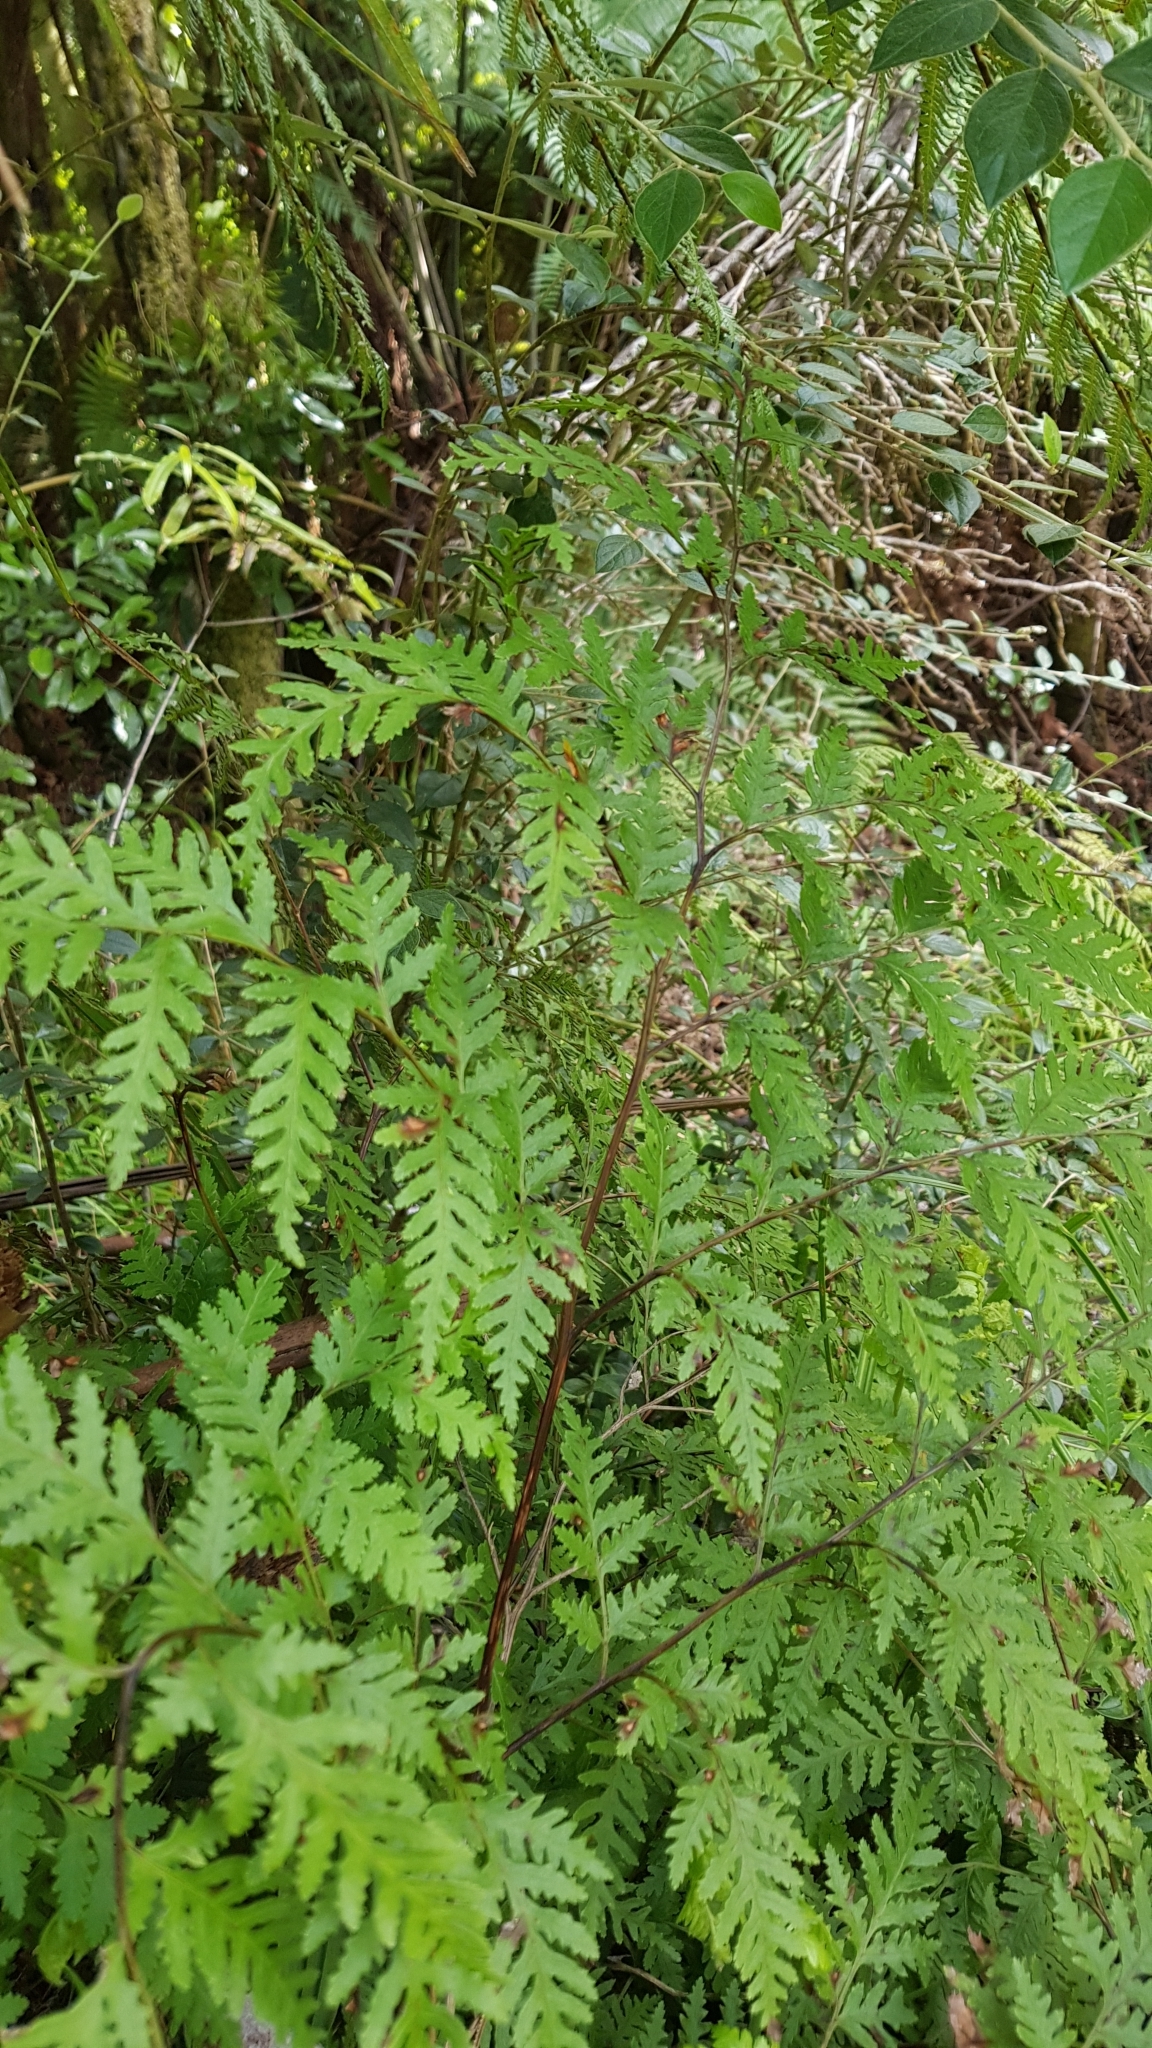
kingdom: Plantae
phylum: Tracheophyta
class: Polypodiopsida
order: Polypodiales
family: Pteridaceae
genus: Pteris
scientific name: Pteris macilenta
